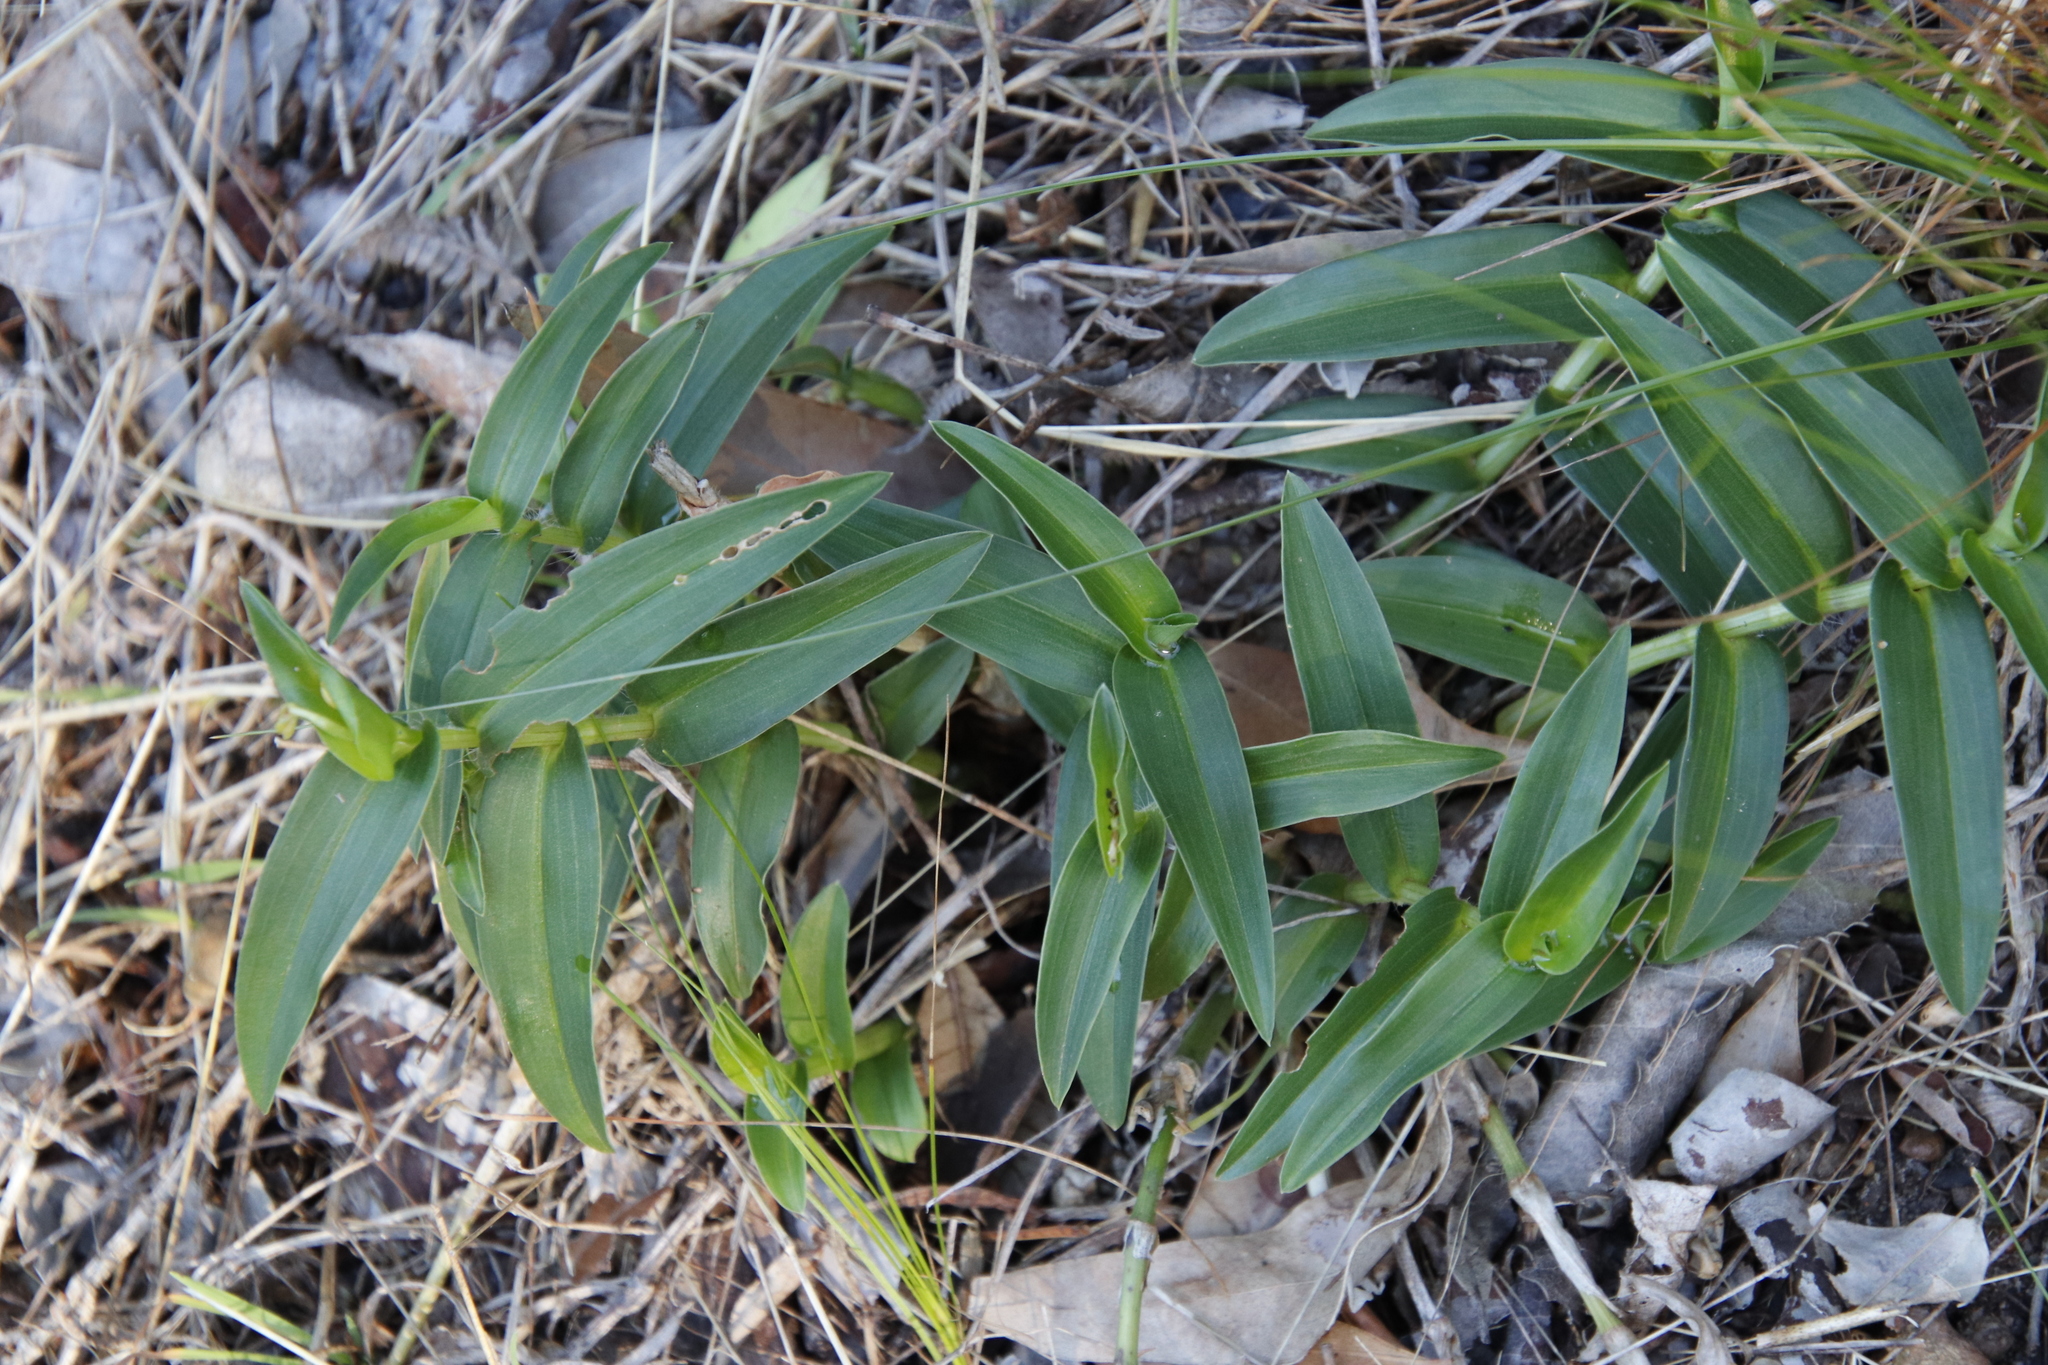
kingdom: Plantae
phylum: Tracheophyta
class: Liliopsida
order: Commelinales
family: Commelinaceae
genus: Commelina
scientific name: Commelina africana
